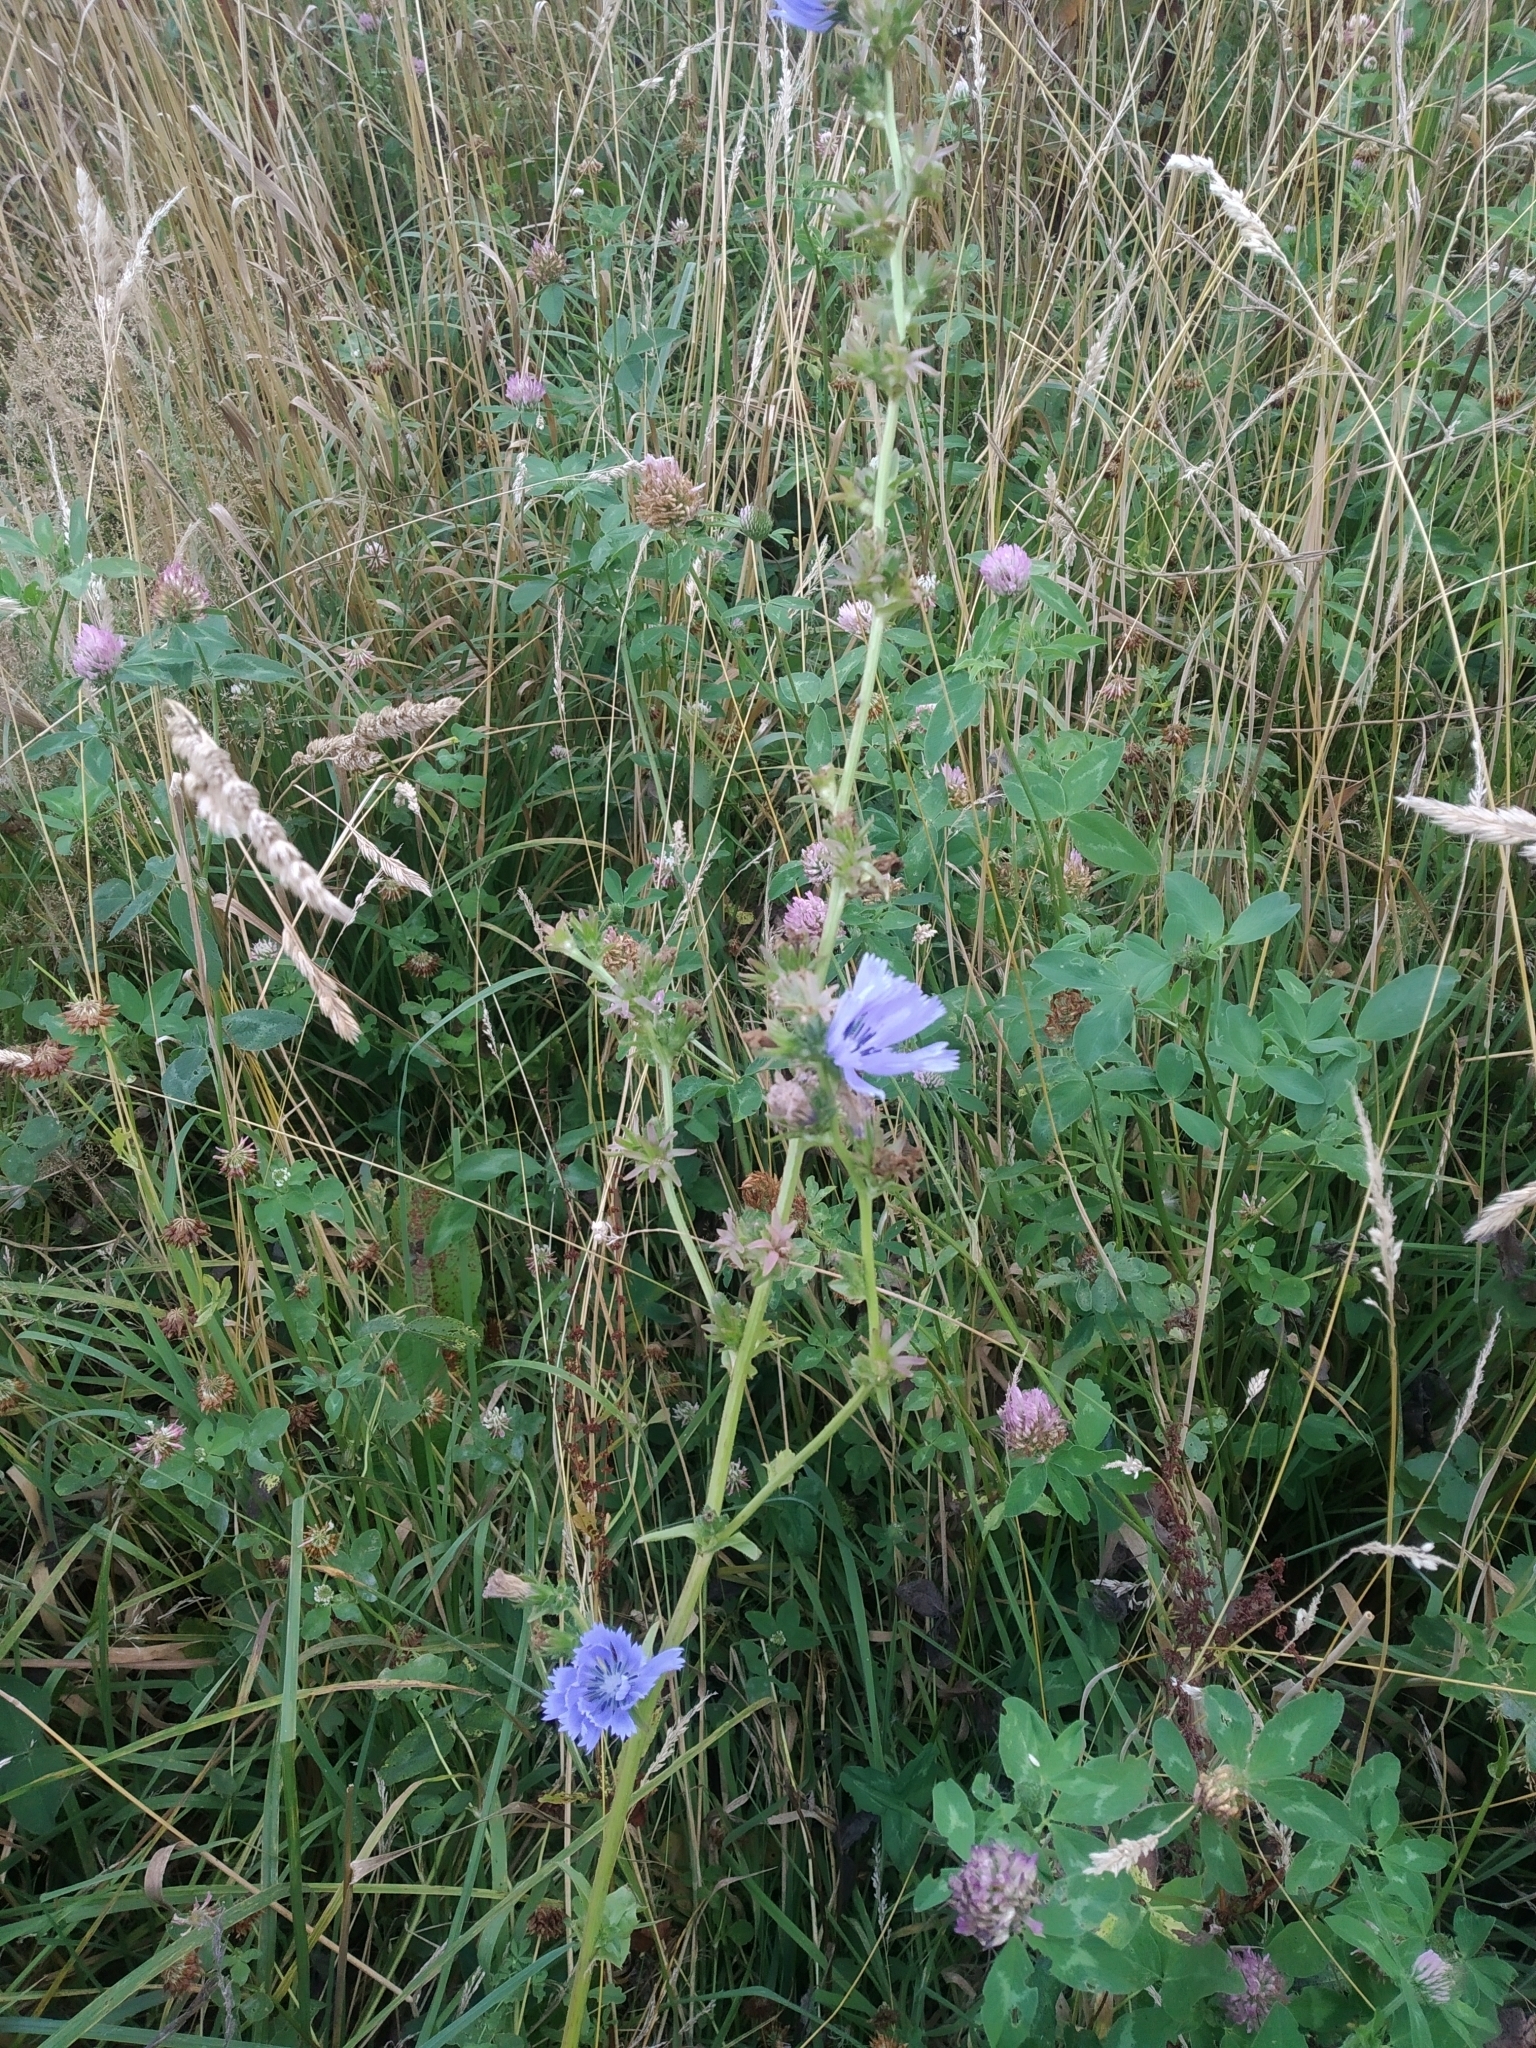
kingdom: Plantae
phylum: Tracheophyta
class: Magnoliopsida
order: Asterales
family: Asteraceae
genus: Cichorium
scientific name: Cichorium intybus
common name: Chicory
